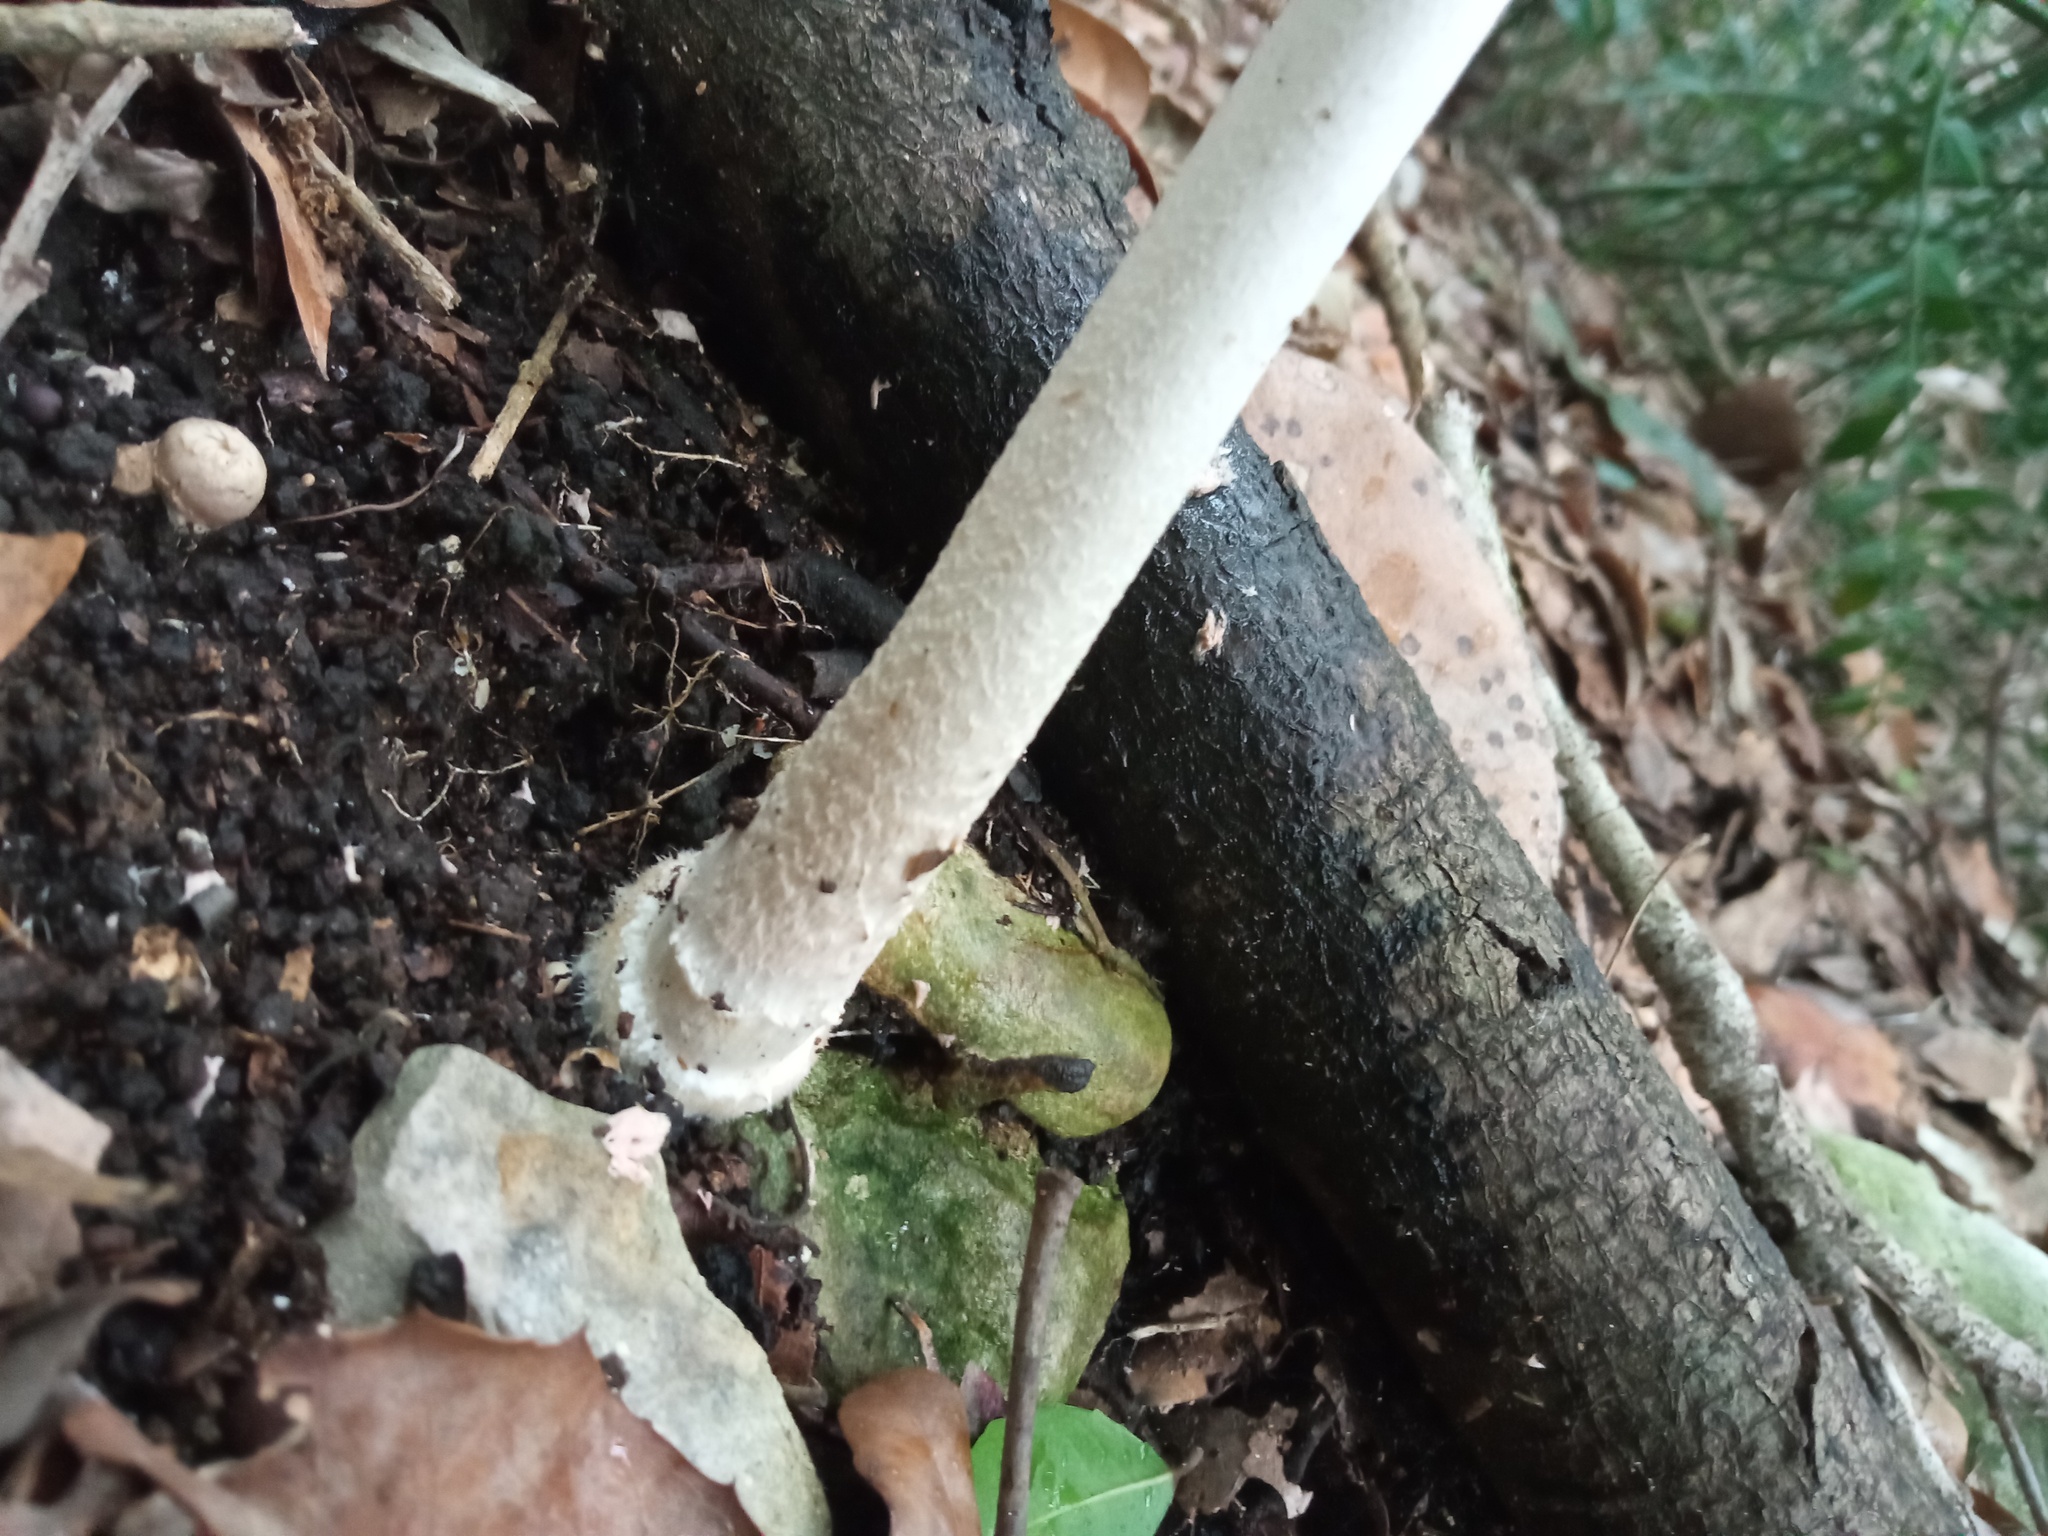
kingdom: Fungi
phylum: Basidiomycota
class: Agaricomycetes
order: Agaricales
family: Psathyrellaceae
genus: Coprinopsis
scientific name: Coprinopsis picacea
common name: Magpie inkcap
